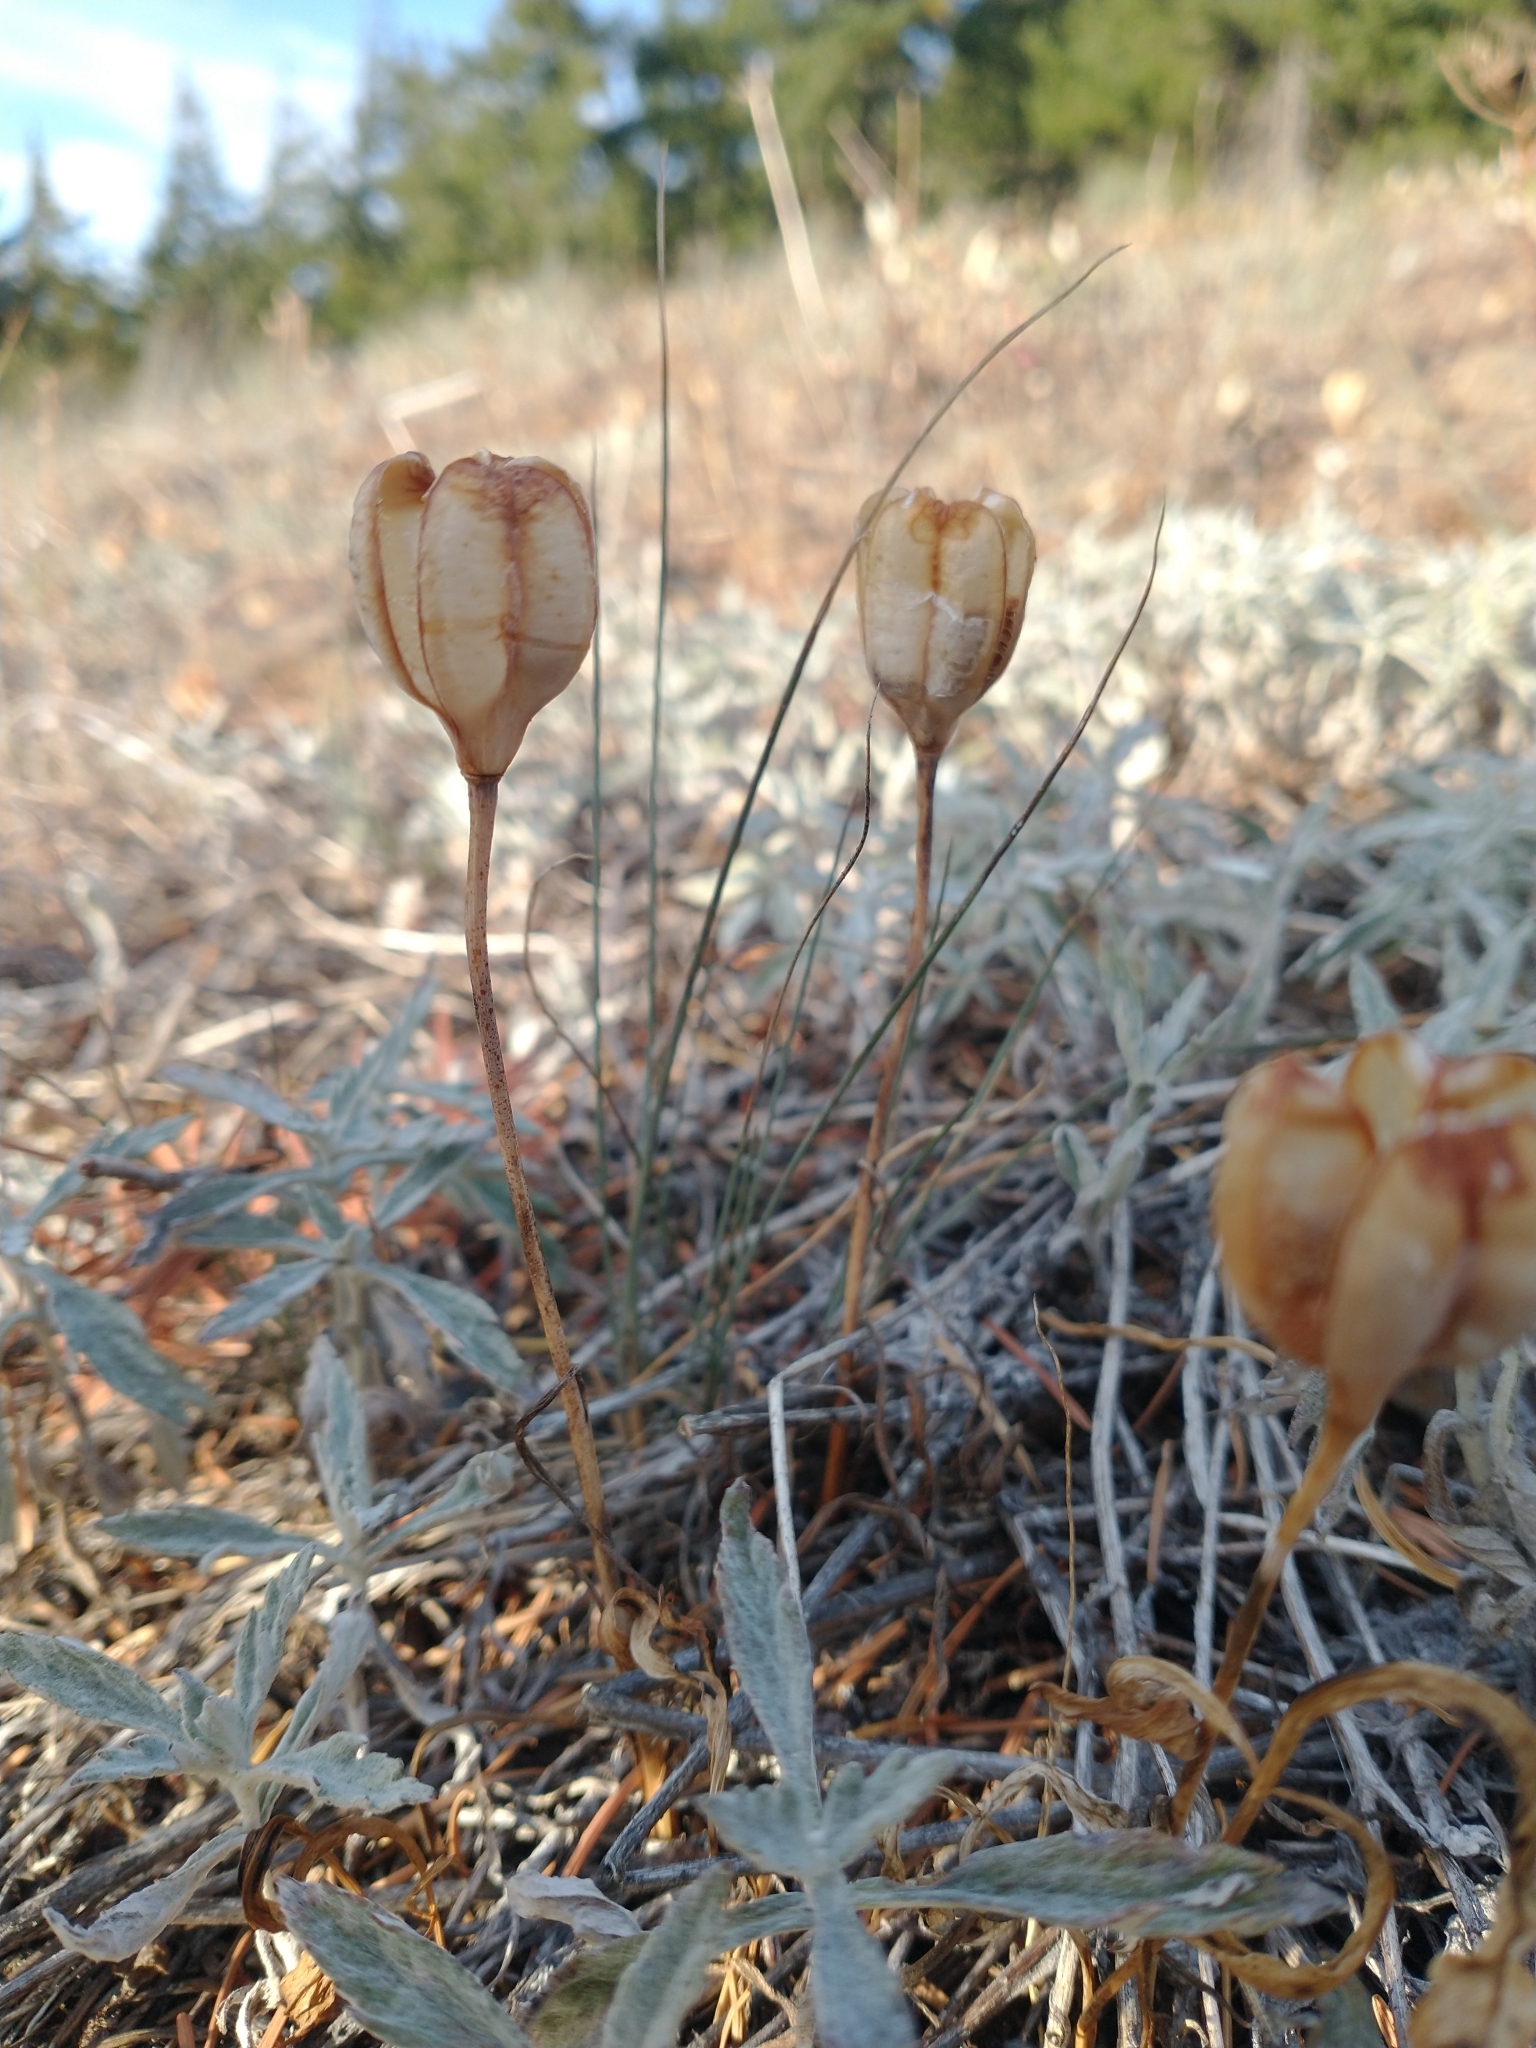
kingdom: Plantae
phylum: Tracheophyta
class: Liliopsida
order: Liliales
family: Liliaceae
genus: Fritillaria
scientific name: Fritillaria pudica
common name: Yellow fritillary
